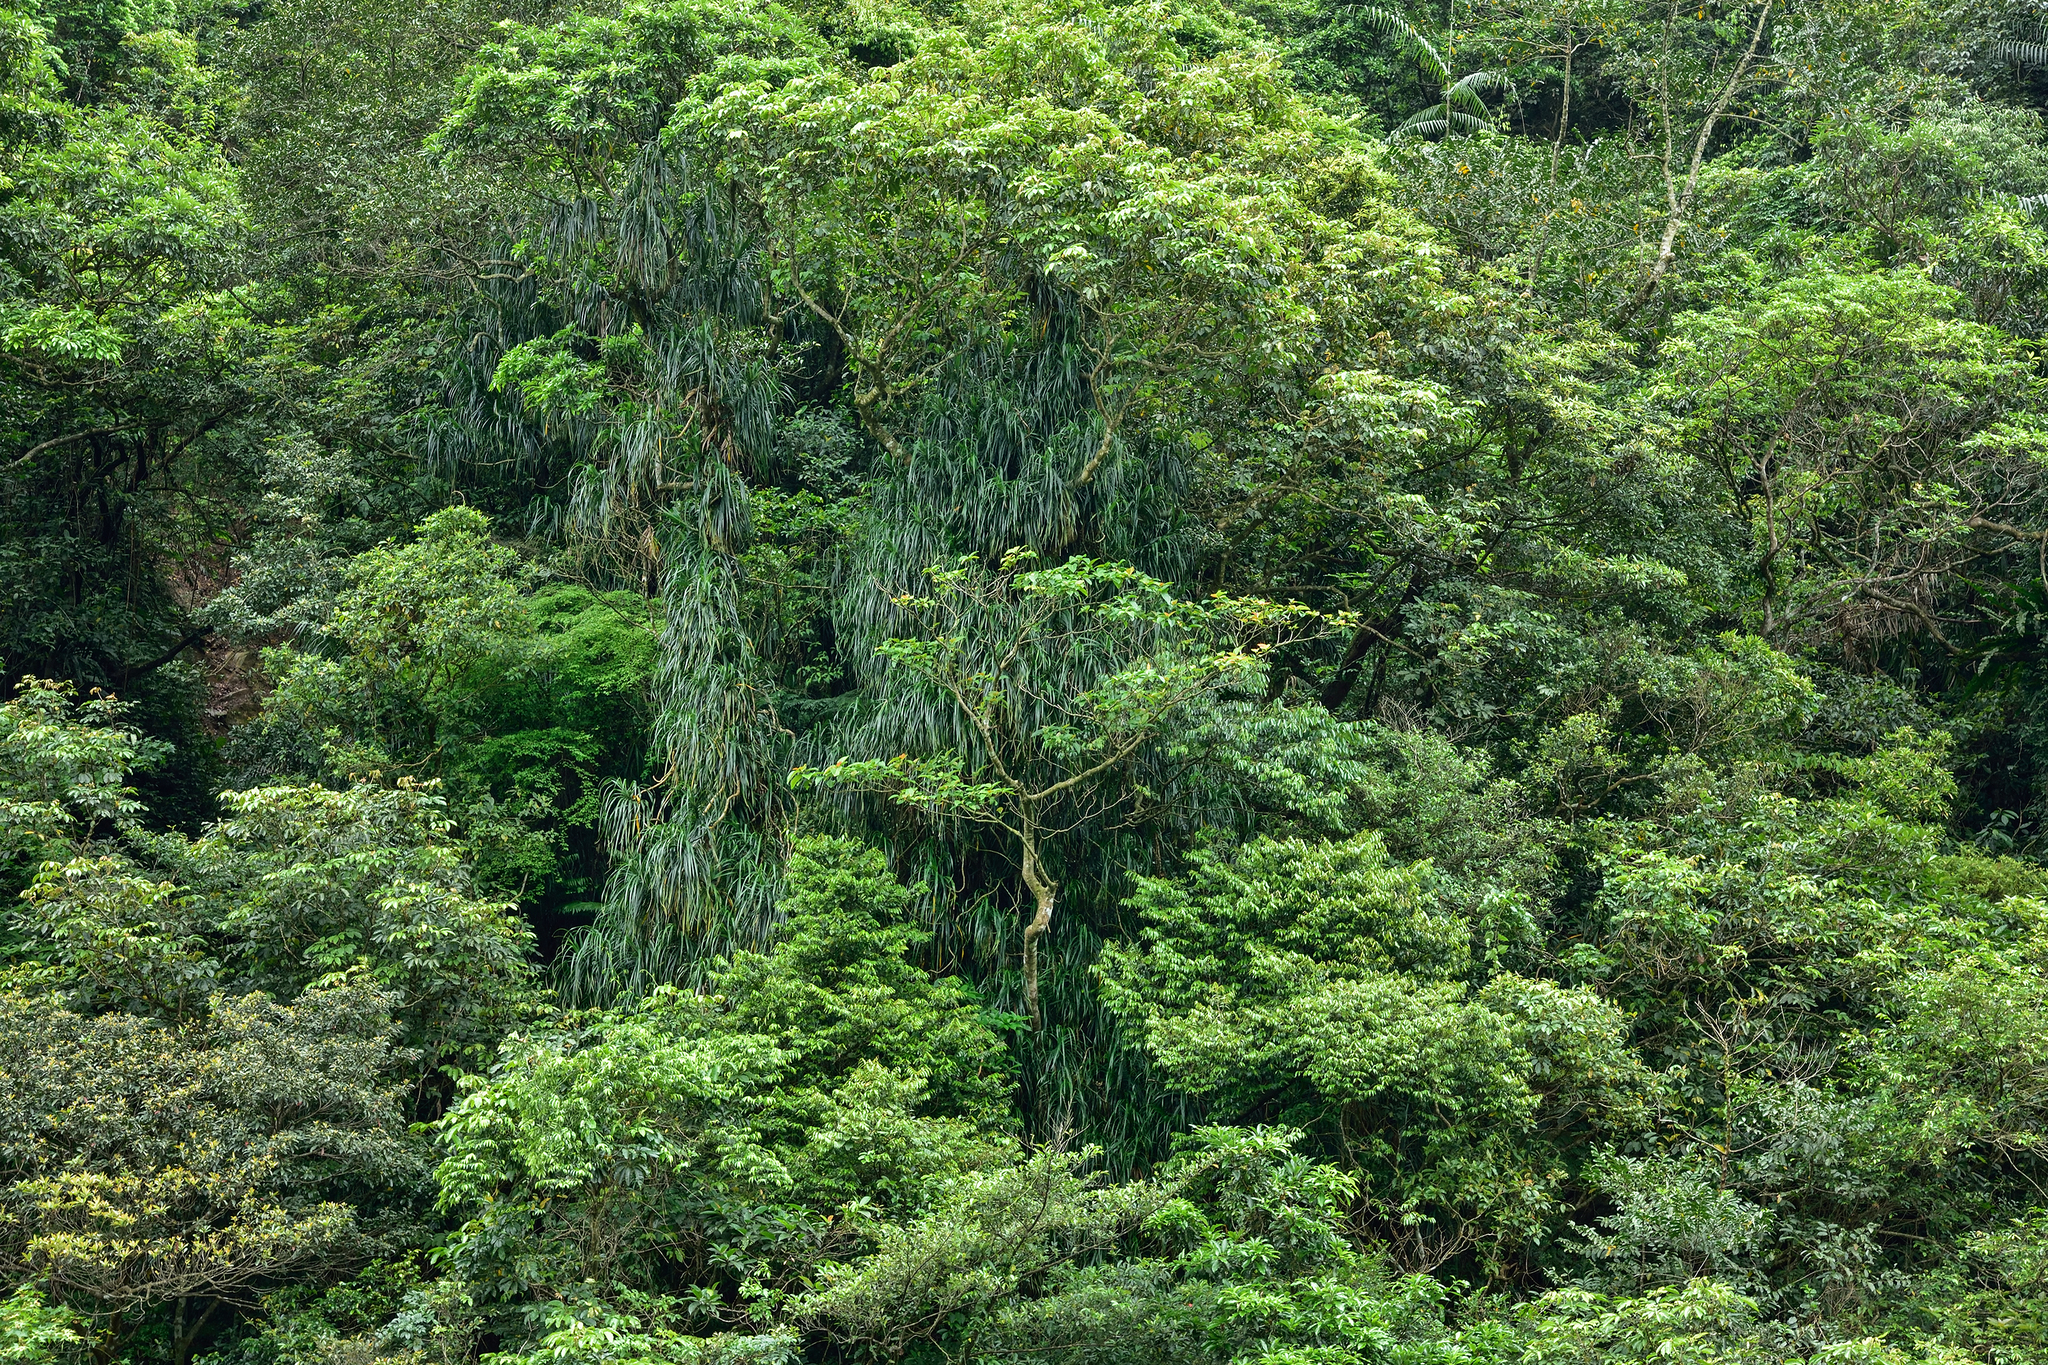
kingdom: Plantae
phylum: Tracheophyta
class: Liliopsida
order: Pandanales
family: Pandanaceae
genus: Freycinetia
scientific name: Freycinetia formosana
